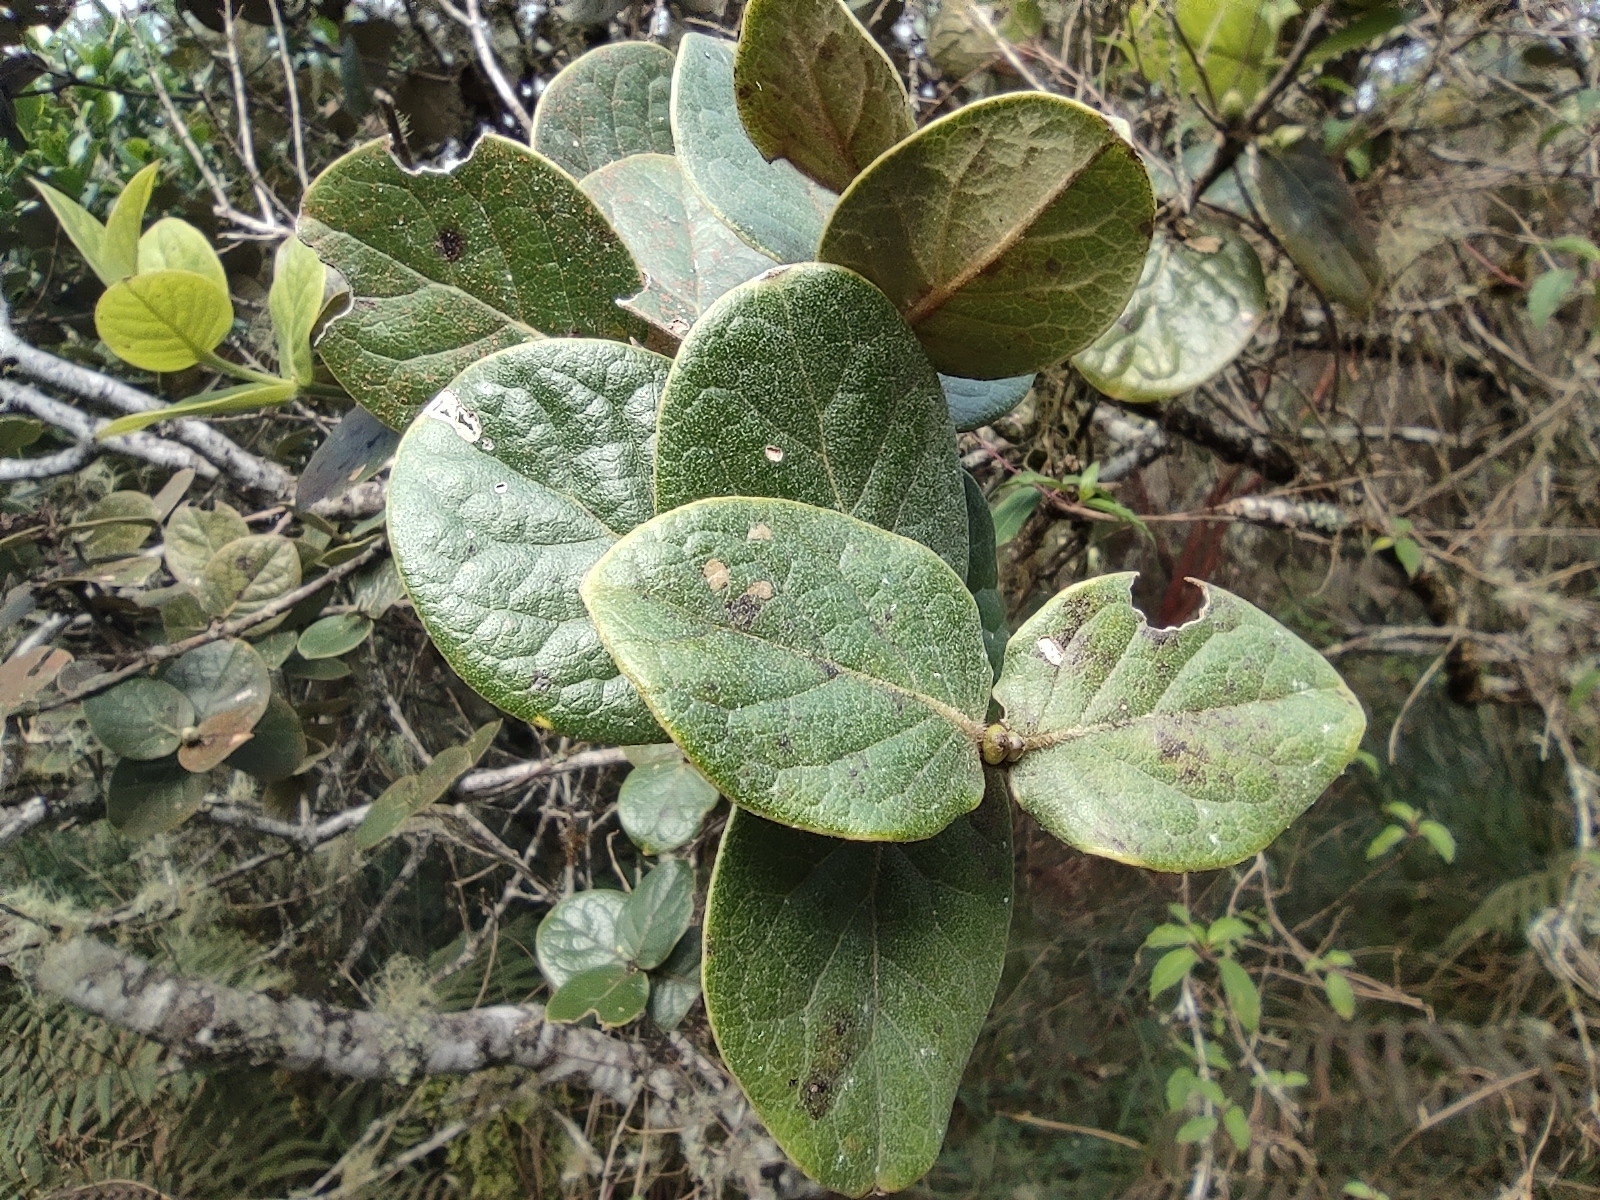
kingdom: Plantae
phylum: Tracheophyta
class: Magnoliopsida
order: Laurales
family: Monimiaceae
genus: Monimia
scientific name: Monimia rotundifolia
